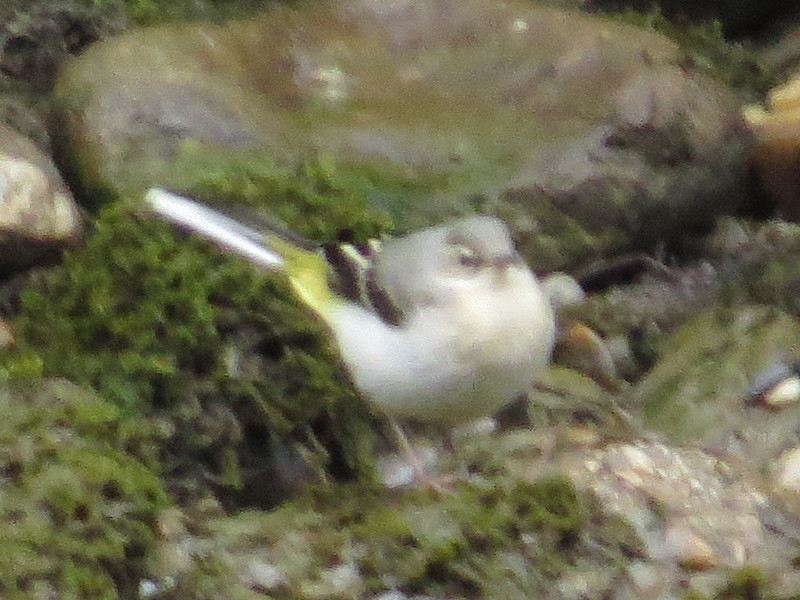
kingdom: Animalia
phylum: Chordata
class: Aves
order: Passeriformes
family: Motacillidae
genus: Motacilla
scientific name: Motacilla cinerea
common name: Grey wagtail
